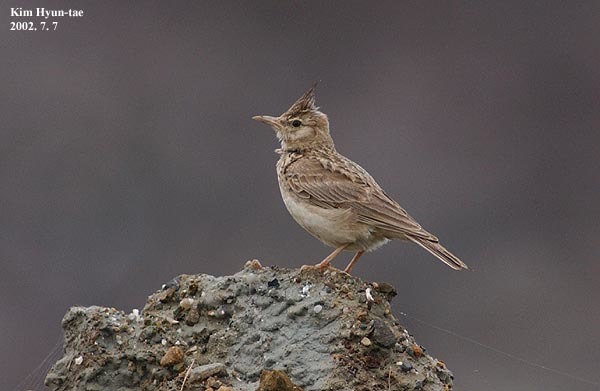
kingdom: Animalia
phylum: Chordata
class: Aves
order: Passeriformes
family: Alaudidae
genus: Galerida
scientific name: Galerida cristata
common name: Crested lark
